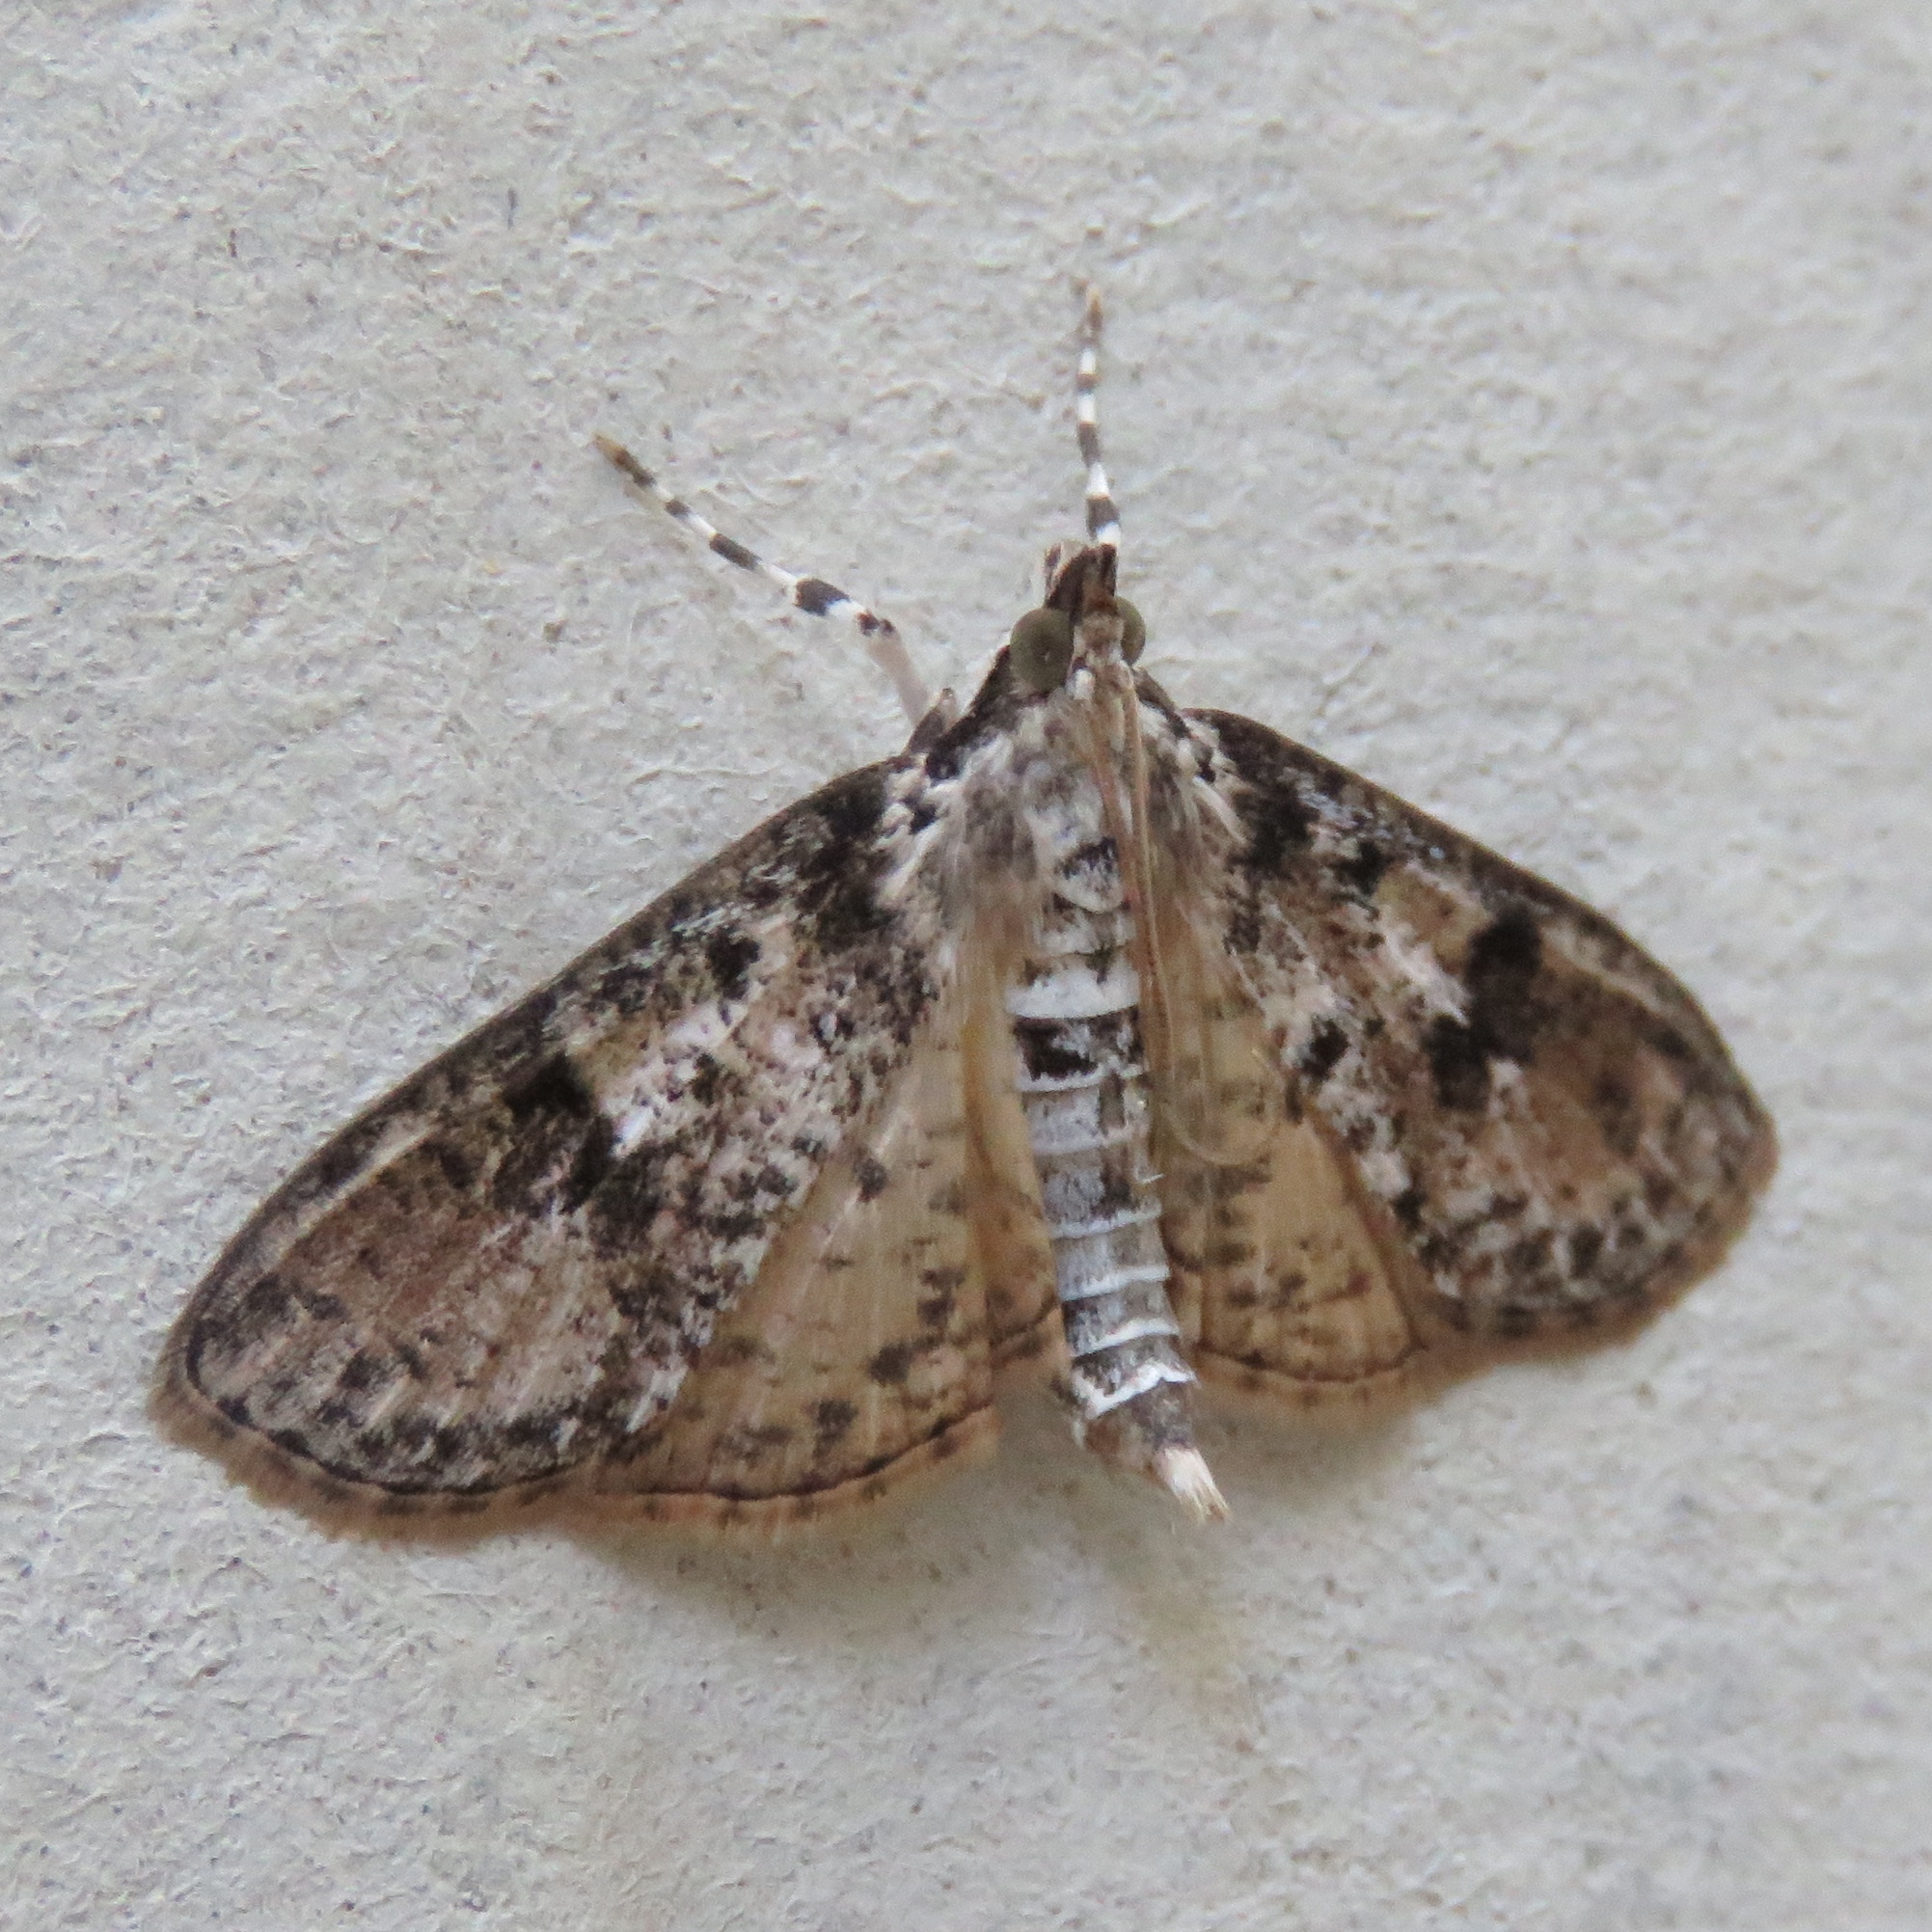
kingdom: Animalia
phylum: Arthropoda
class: Insecta
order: Lepidoptera
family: Crambidae
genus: Palpita
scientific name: Palpita magniferalis
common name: Splendid palpita moth
